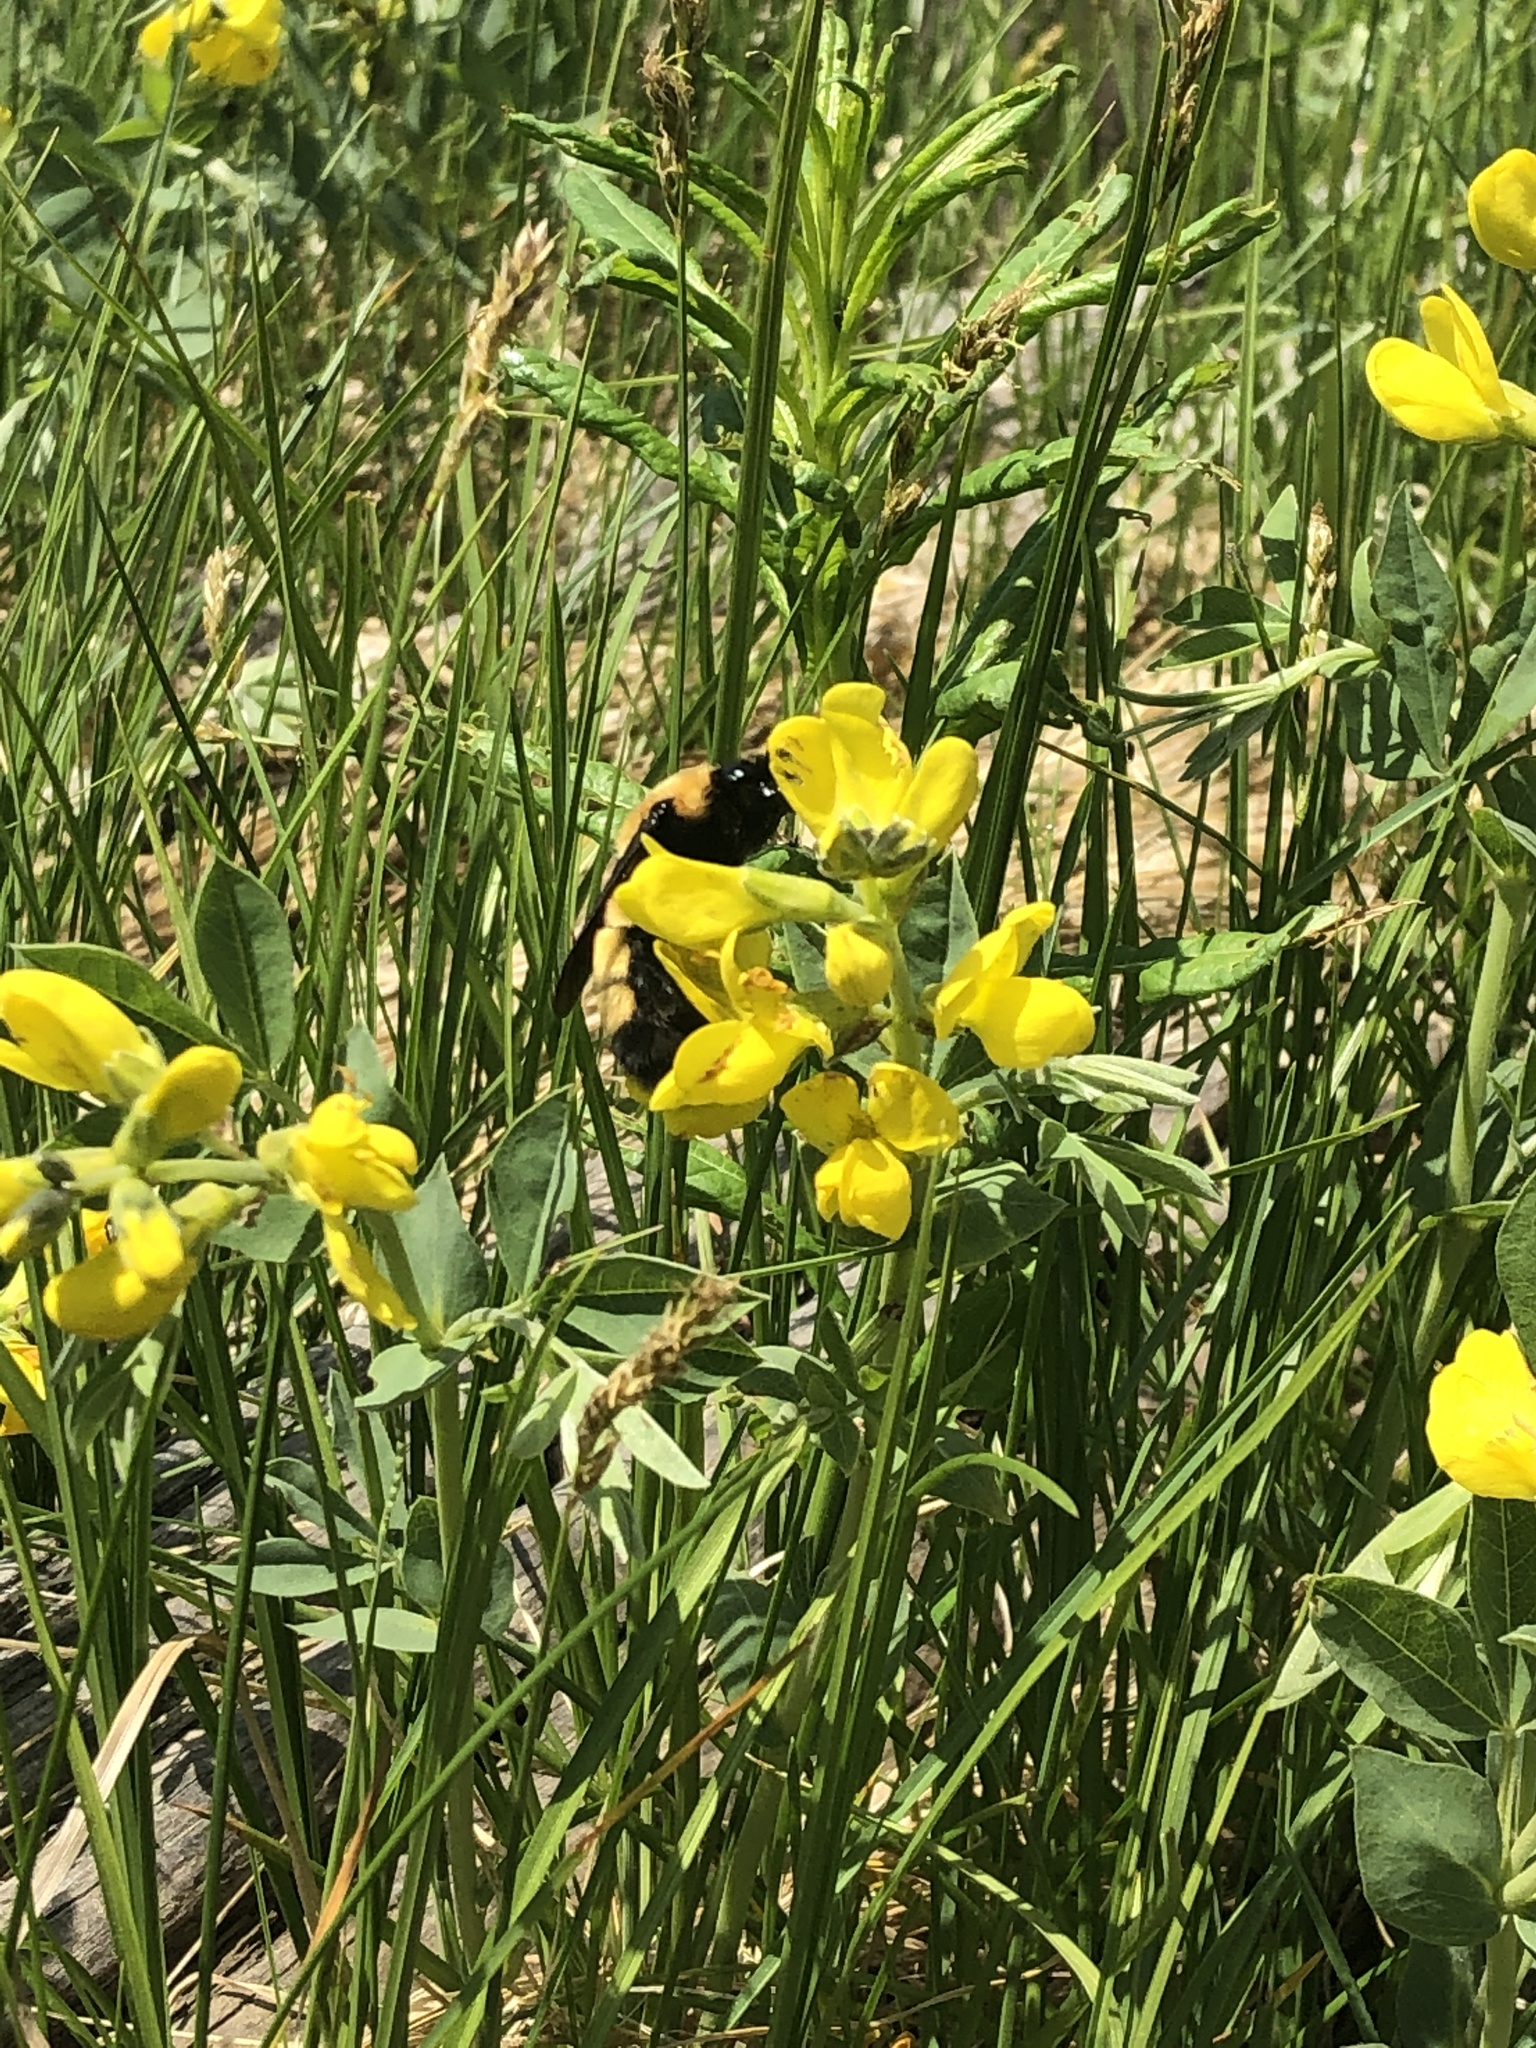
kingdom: Animalia
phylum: Arthropoda
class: Insecta
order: Hymenoptera
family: Apidae
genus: Bombus
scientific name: Bombus nevadensis
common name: Nevada bumble bee
